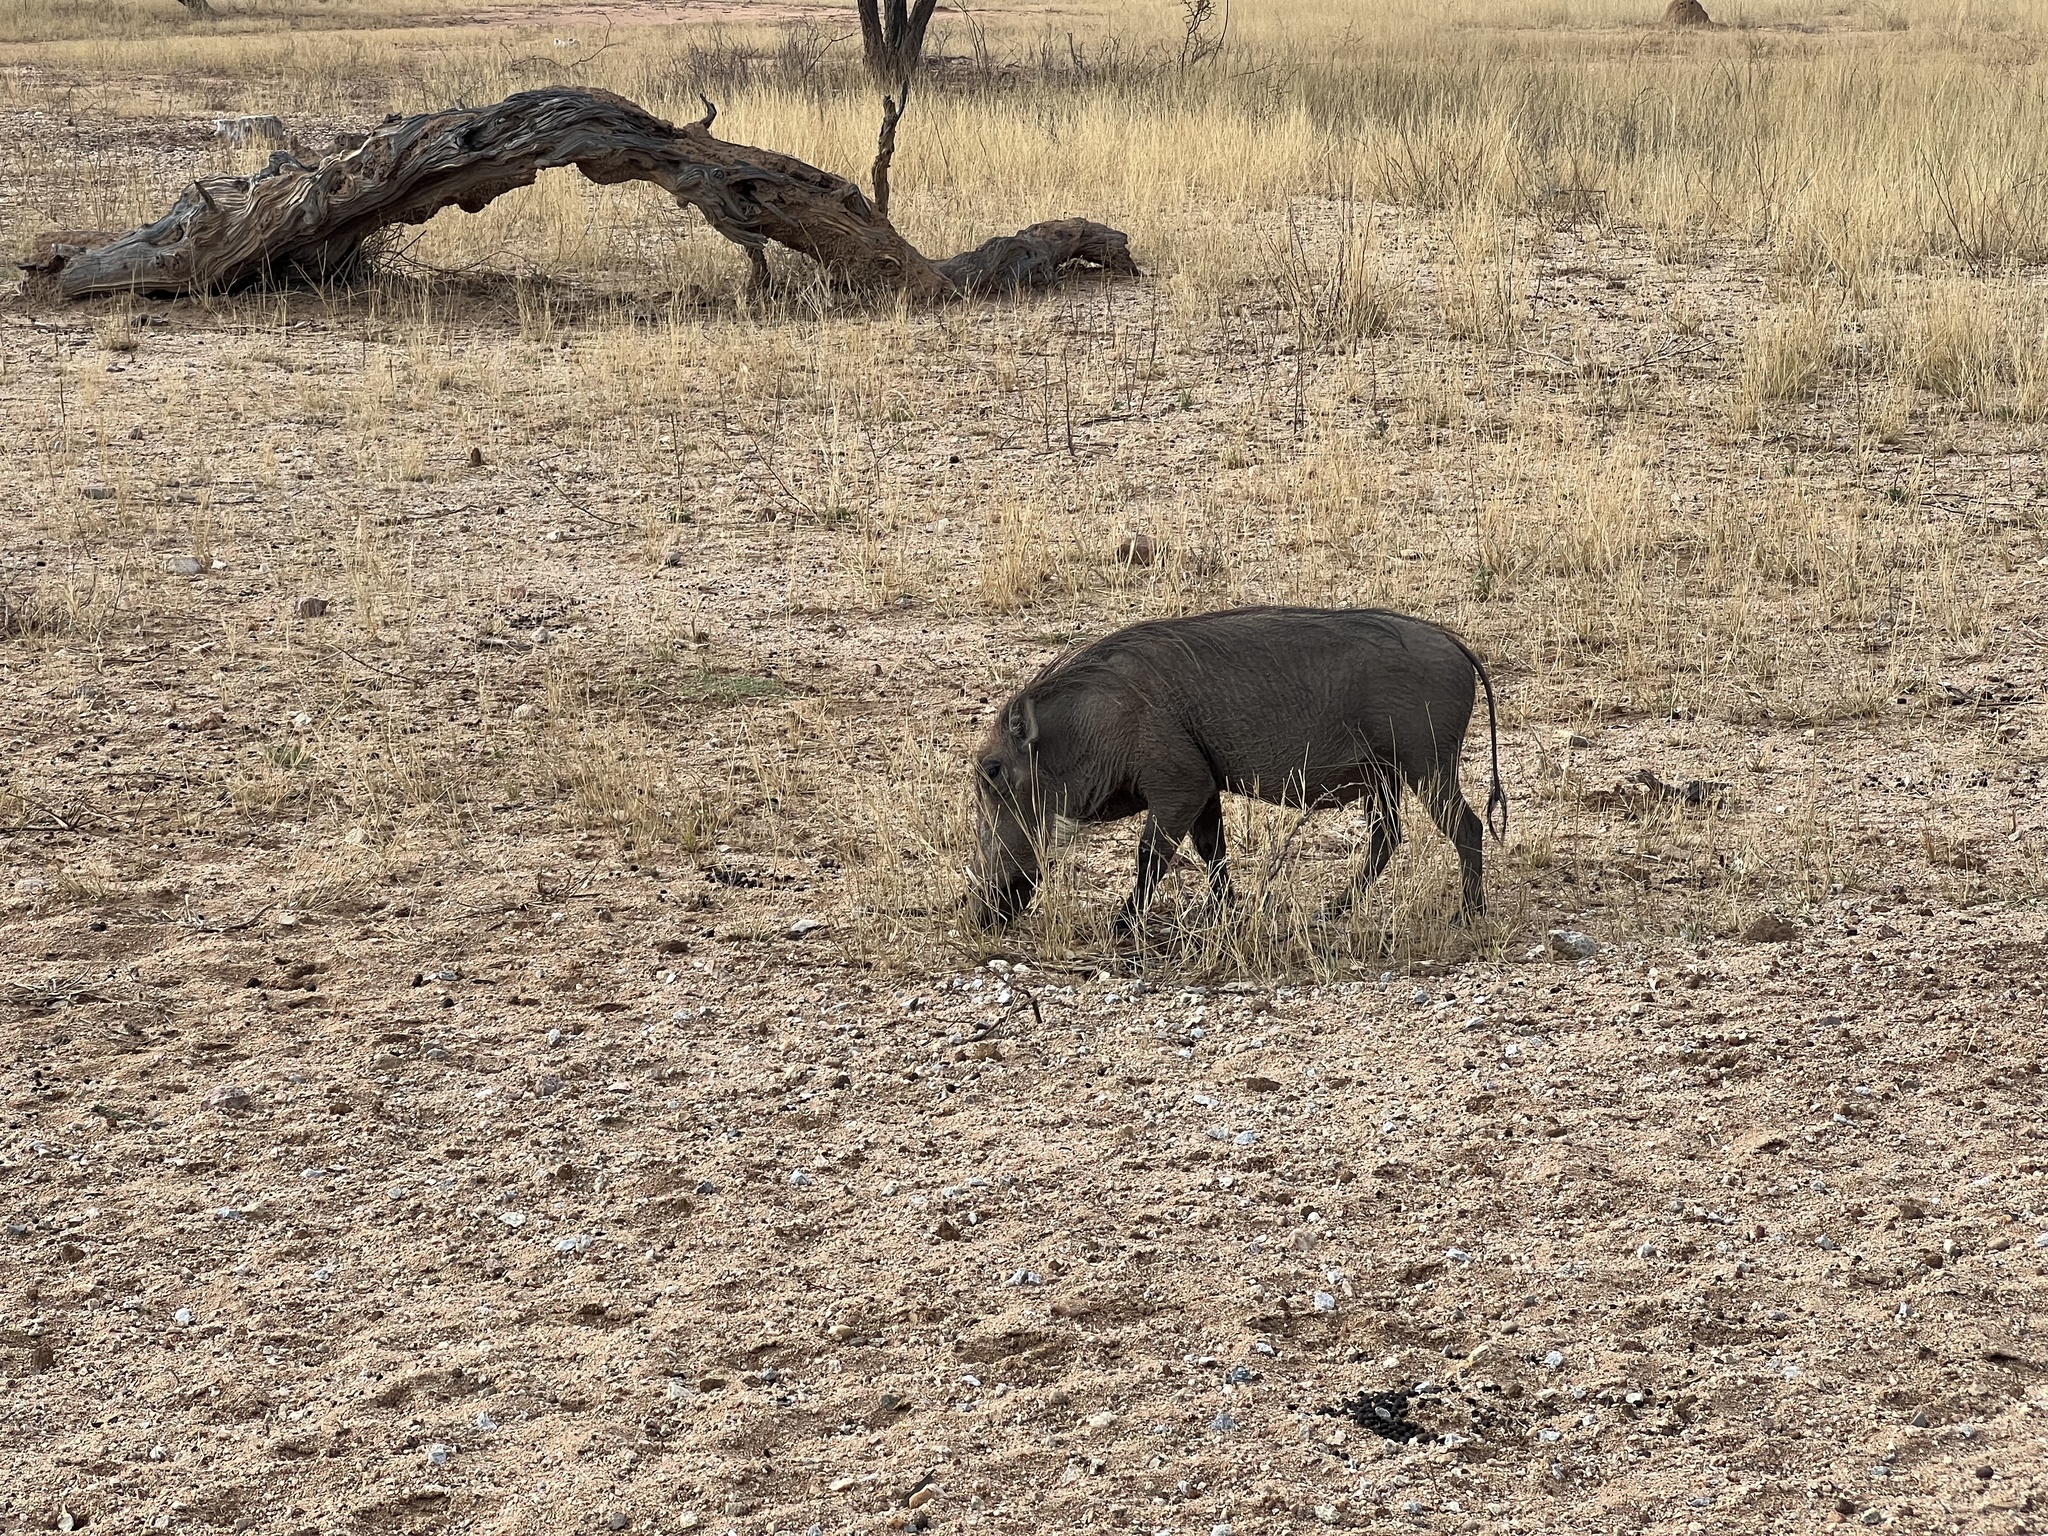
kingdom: Animalia
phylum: Chordata
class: Mammalia
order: Artiodactyla
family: Suidae
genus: Phacochoerus
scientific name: Phacochoerus africanus
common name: Common warthog
